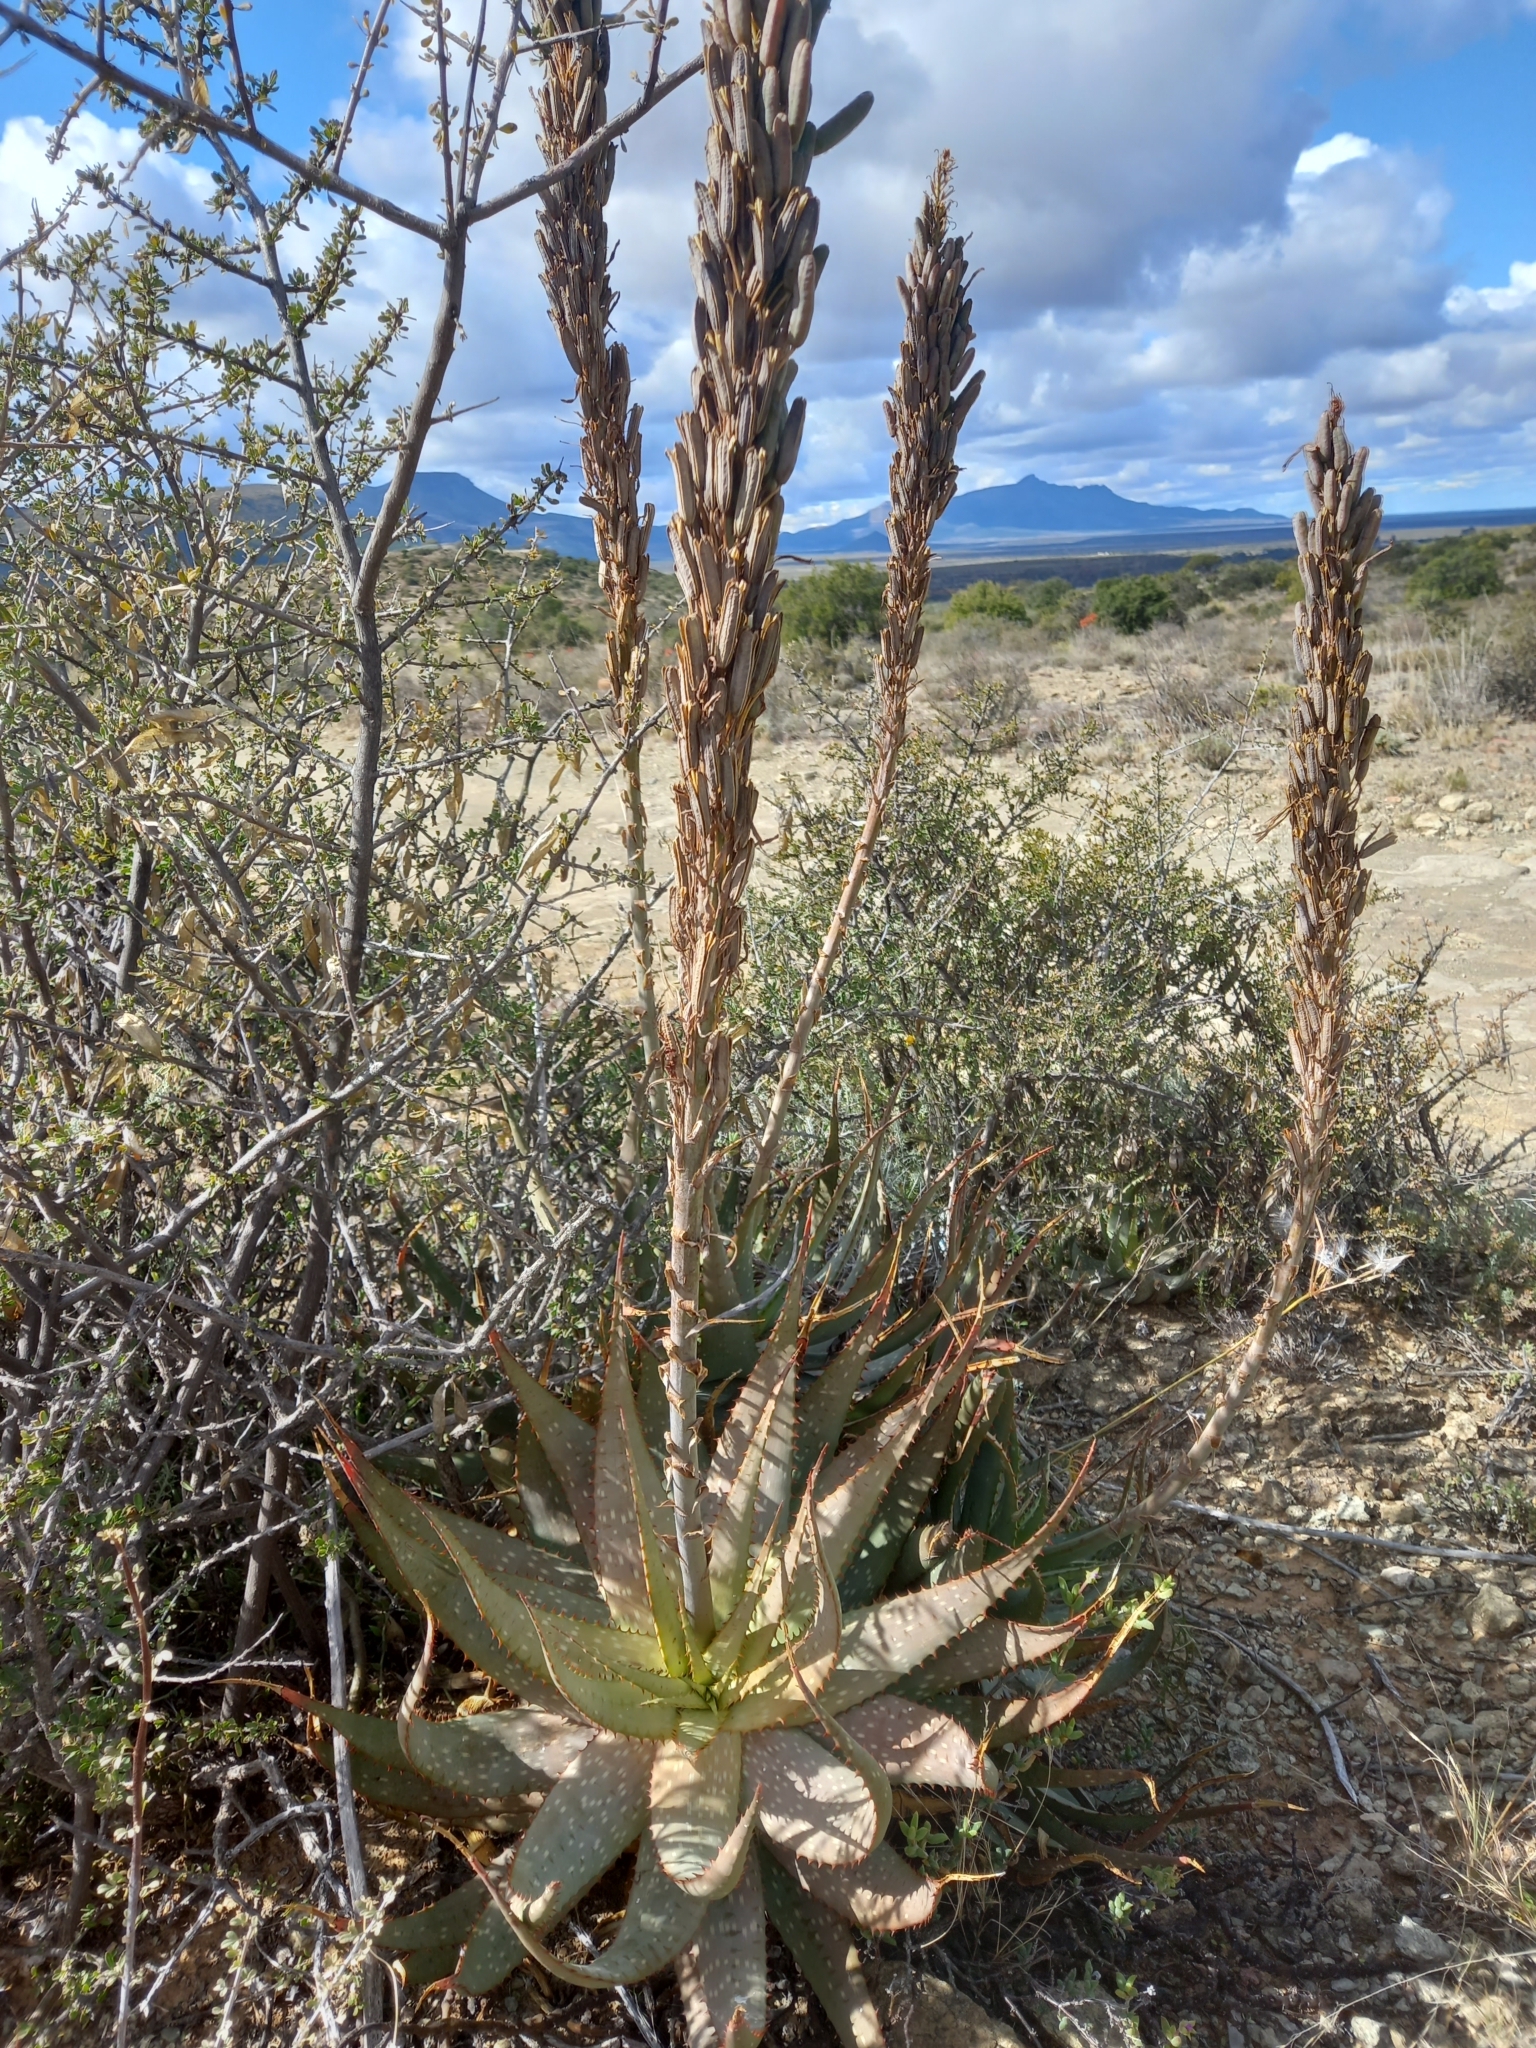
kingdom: Plantae
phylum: Tracheophyta
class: Liliopsida
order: Asparagales
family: Asphodelaceae
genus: Aloe
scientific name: Aloe microstigma
